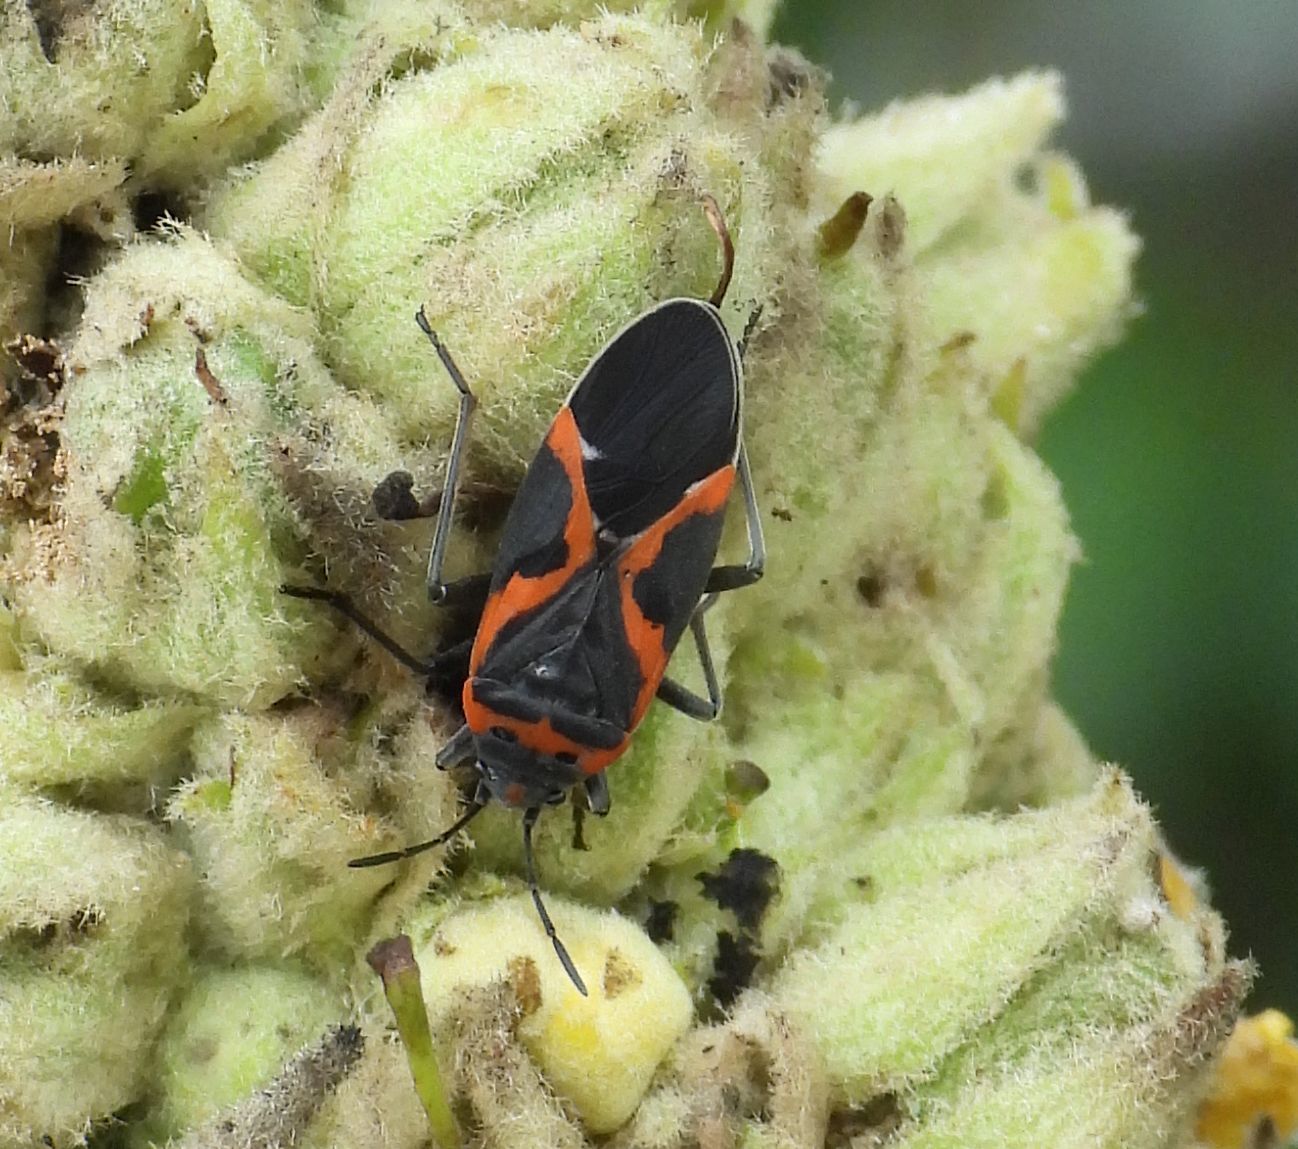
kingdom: Animalia
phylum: Arthropoda
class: Insecta
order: Hemiptera
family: Lygaeidae
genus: Lygaeus
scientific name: Lygaeus kalmii
